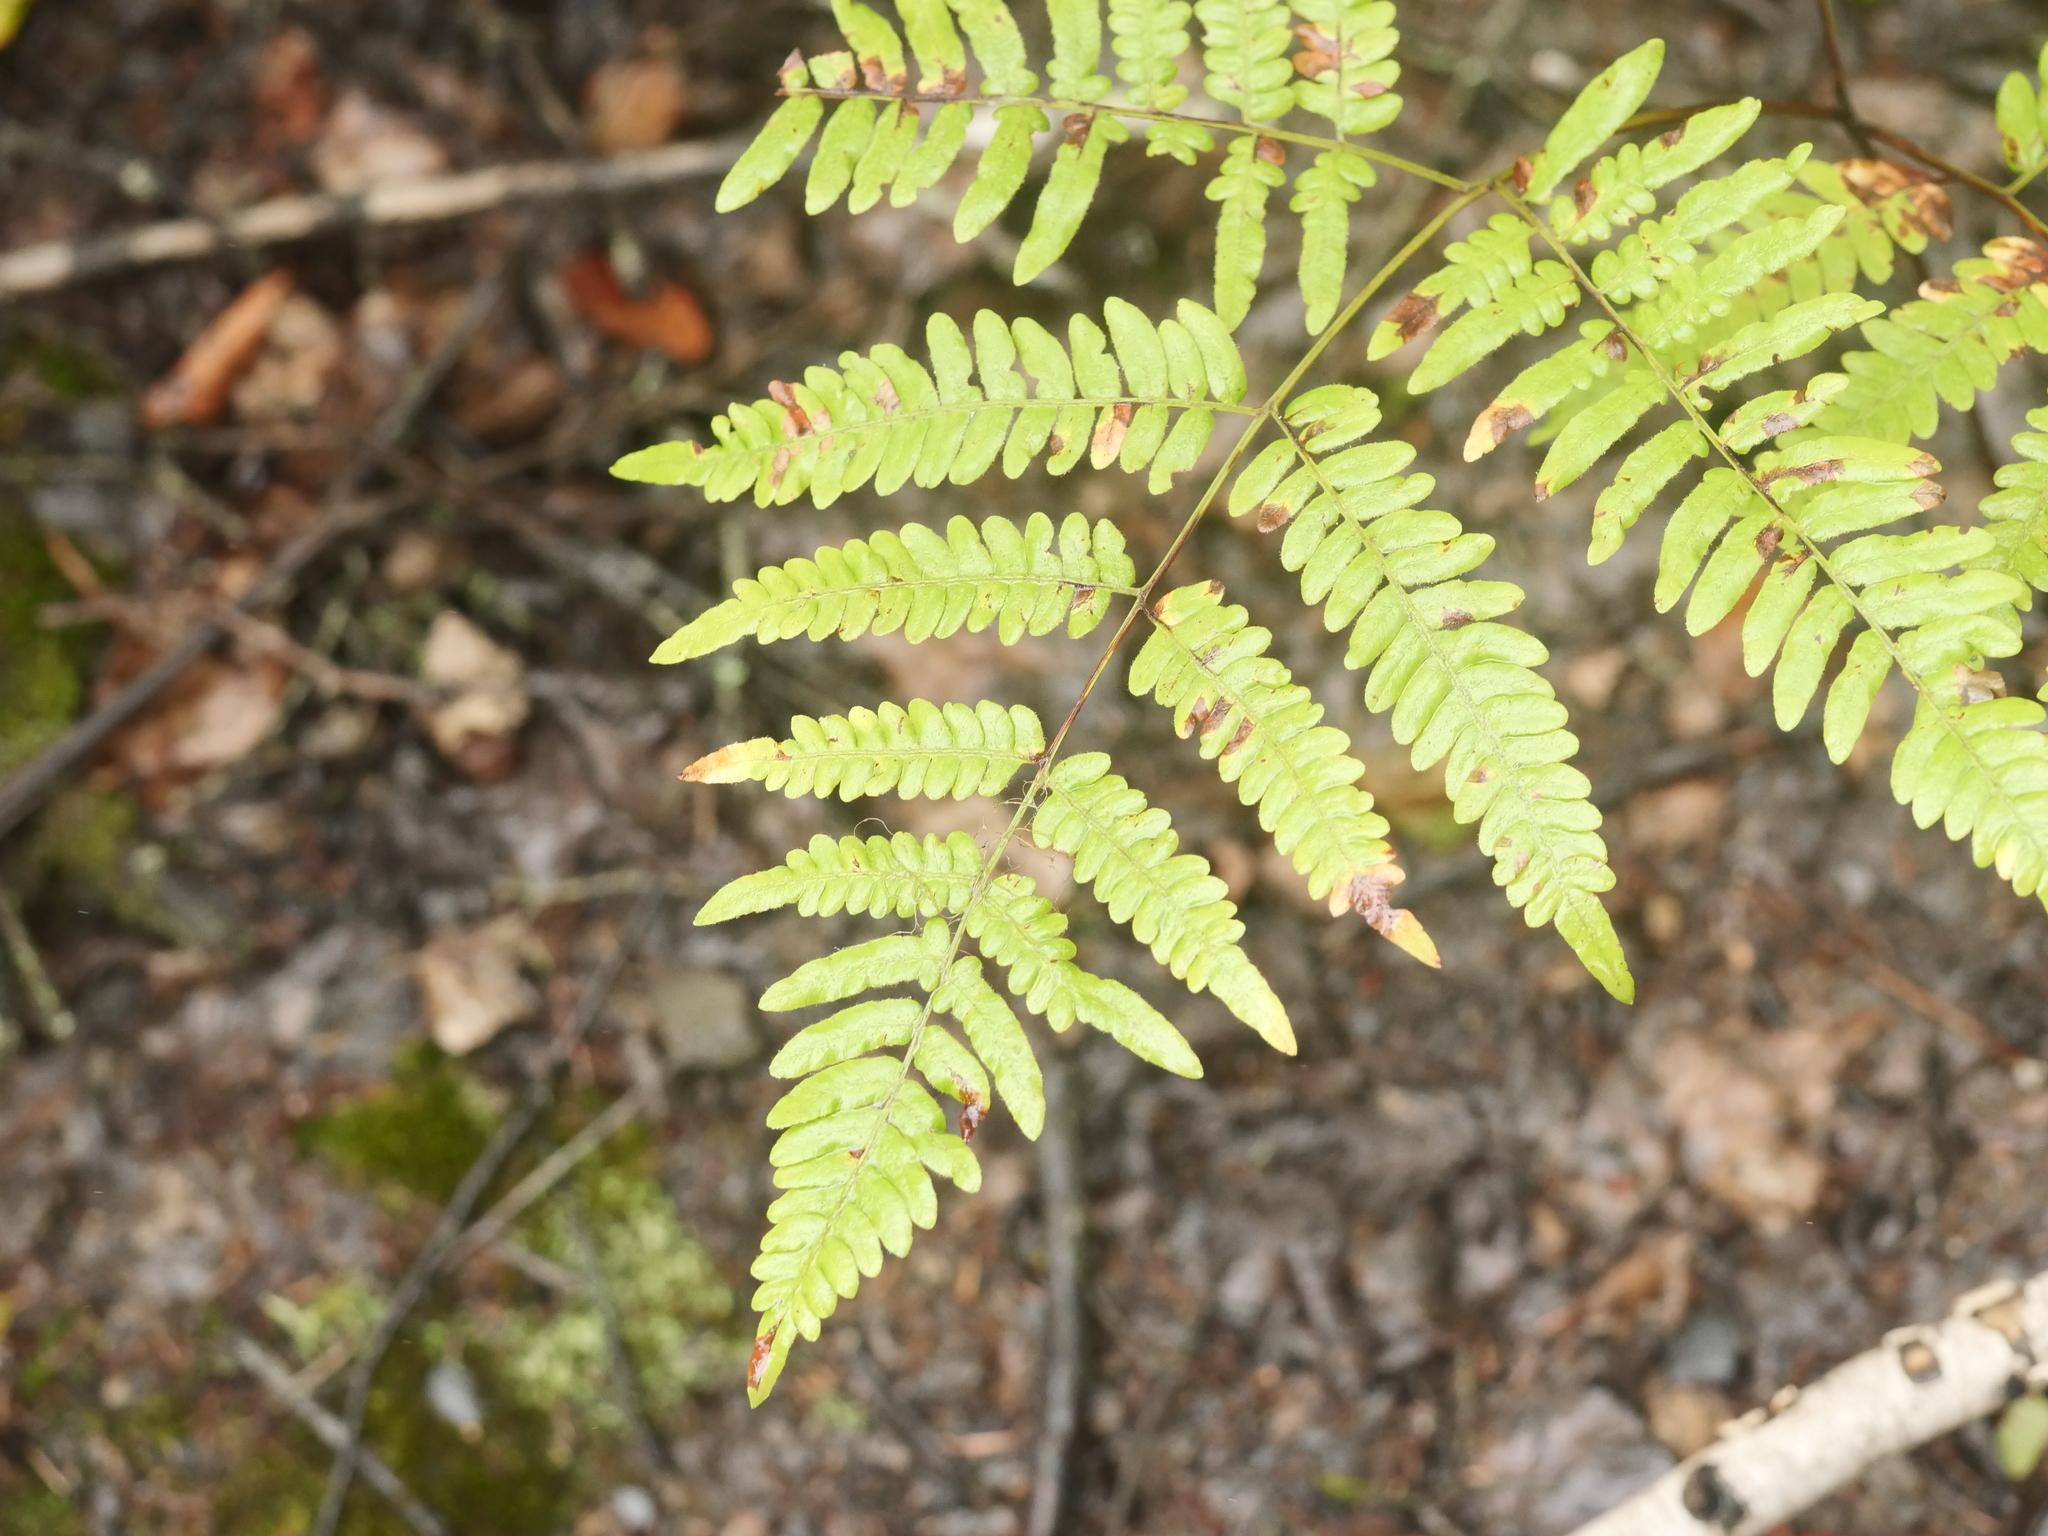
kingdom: Plantae
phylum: Tracheophyta
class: Polypodiopsida
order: Polypodiales
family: Dennstaedtiaceae
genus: Pteridium
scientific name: Pteridium aquilinum
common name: Bracken
